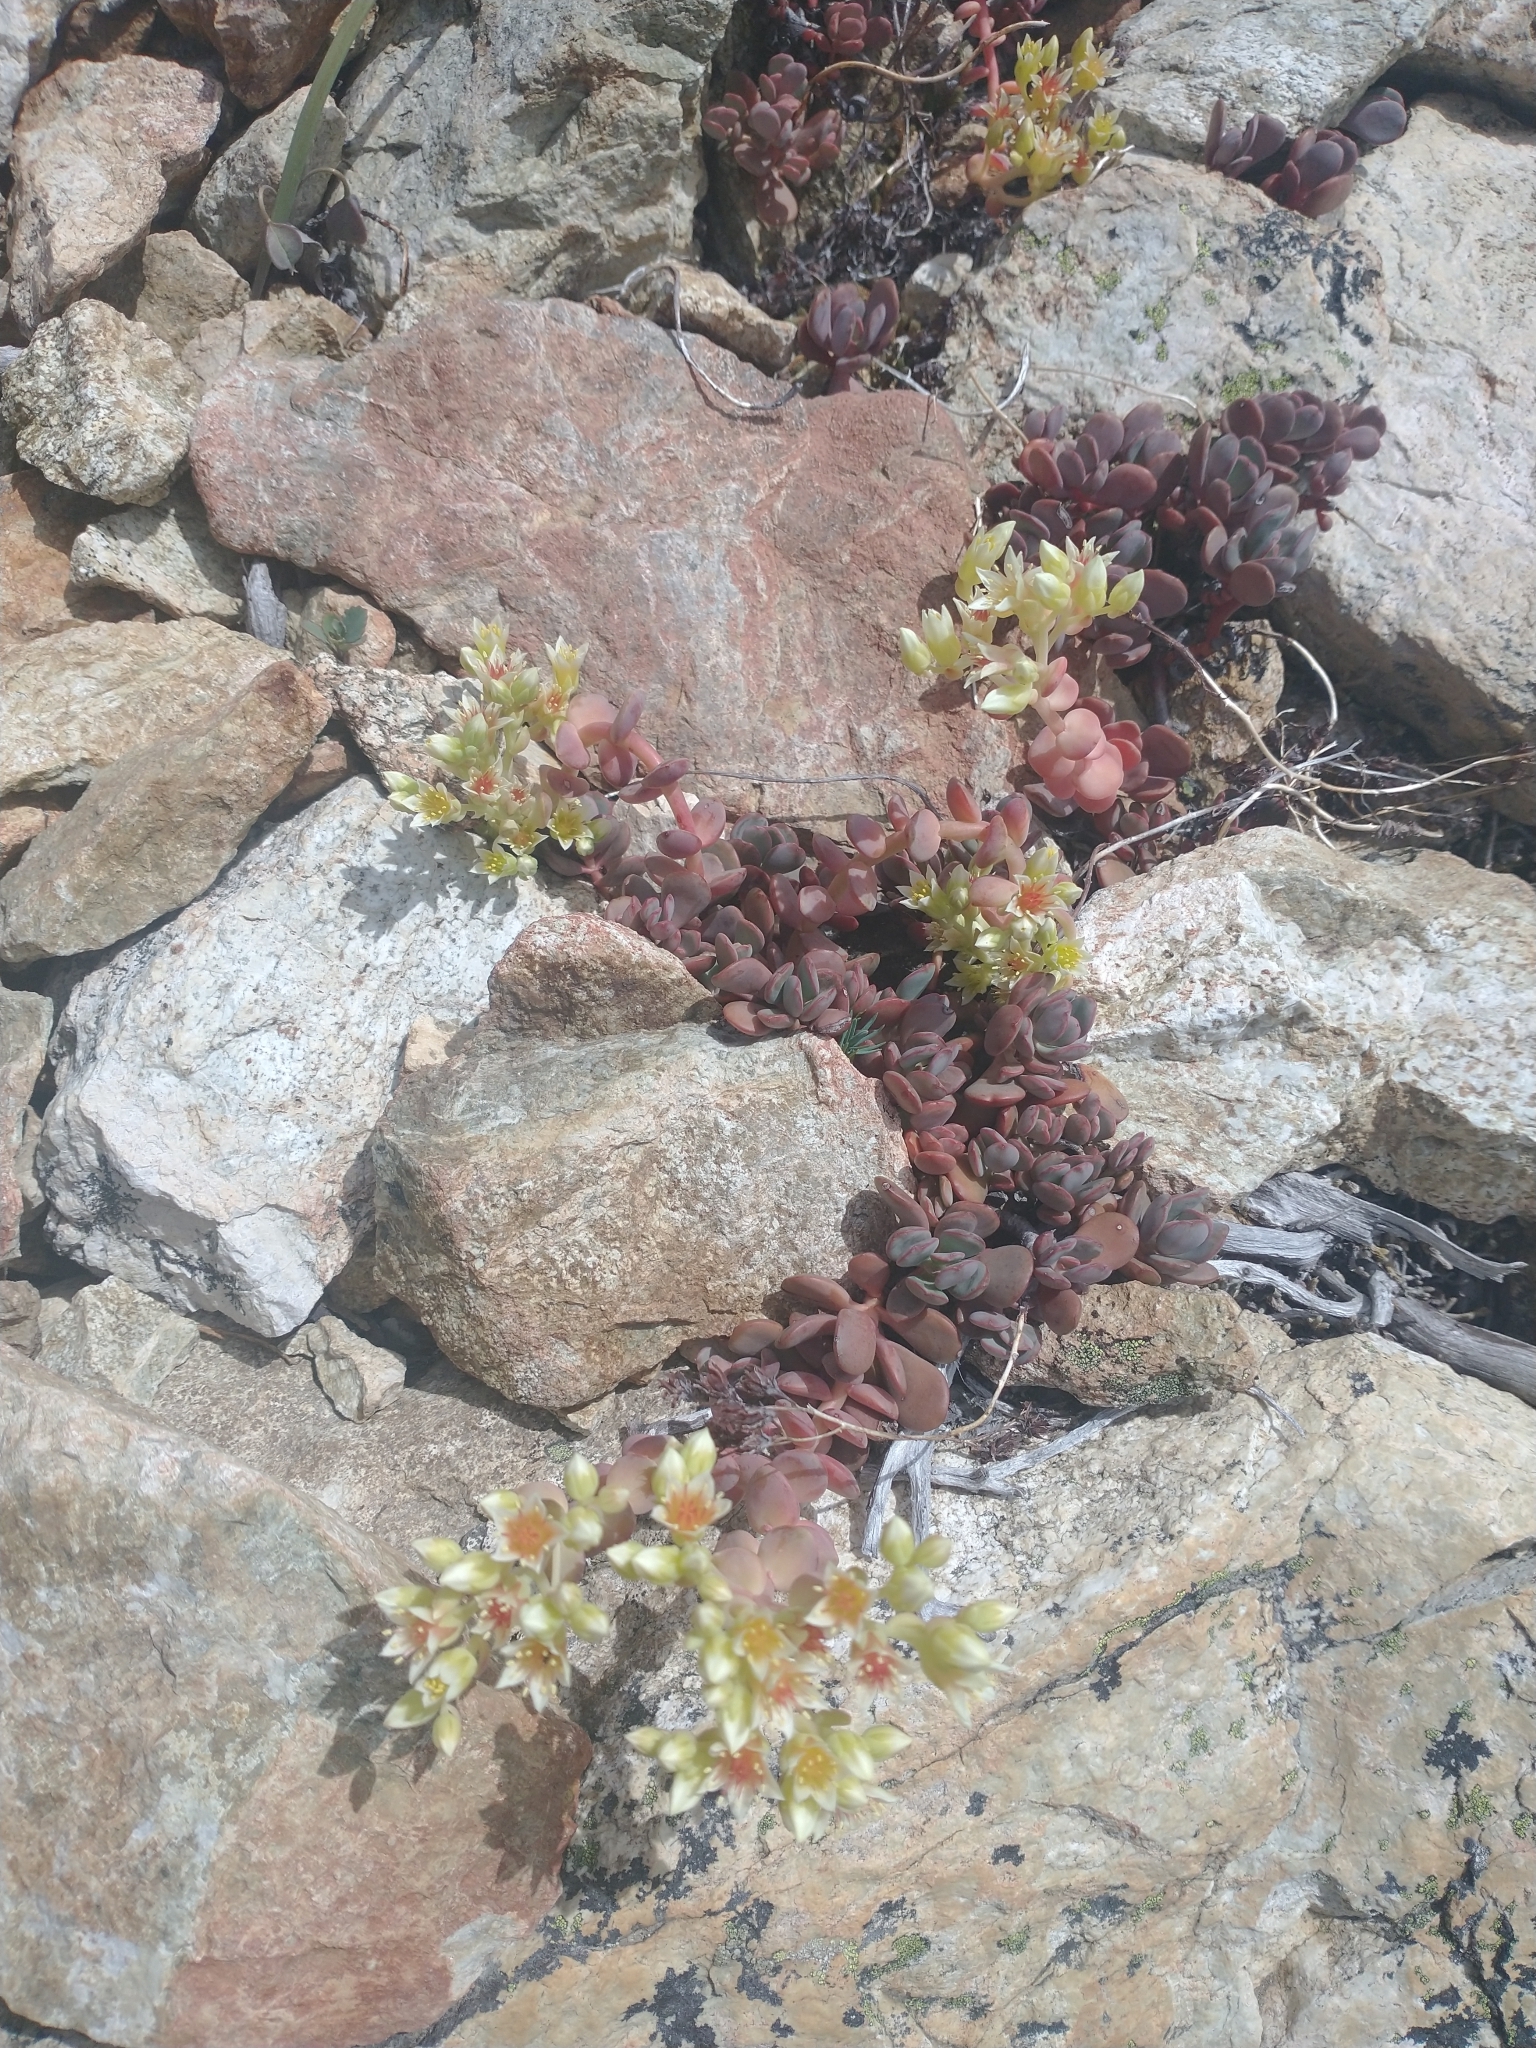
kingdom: Plantae
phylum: Tracheophyta
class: Magnoliopsida
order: Saxifragales
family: Crassulaceae
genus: Sedum
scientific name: Sedum oregonense
